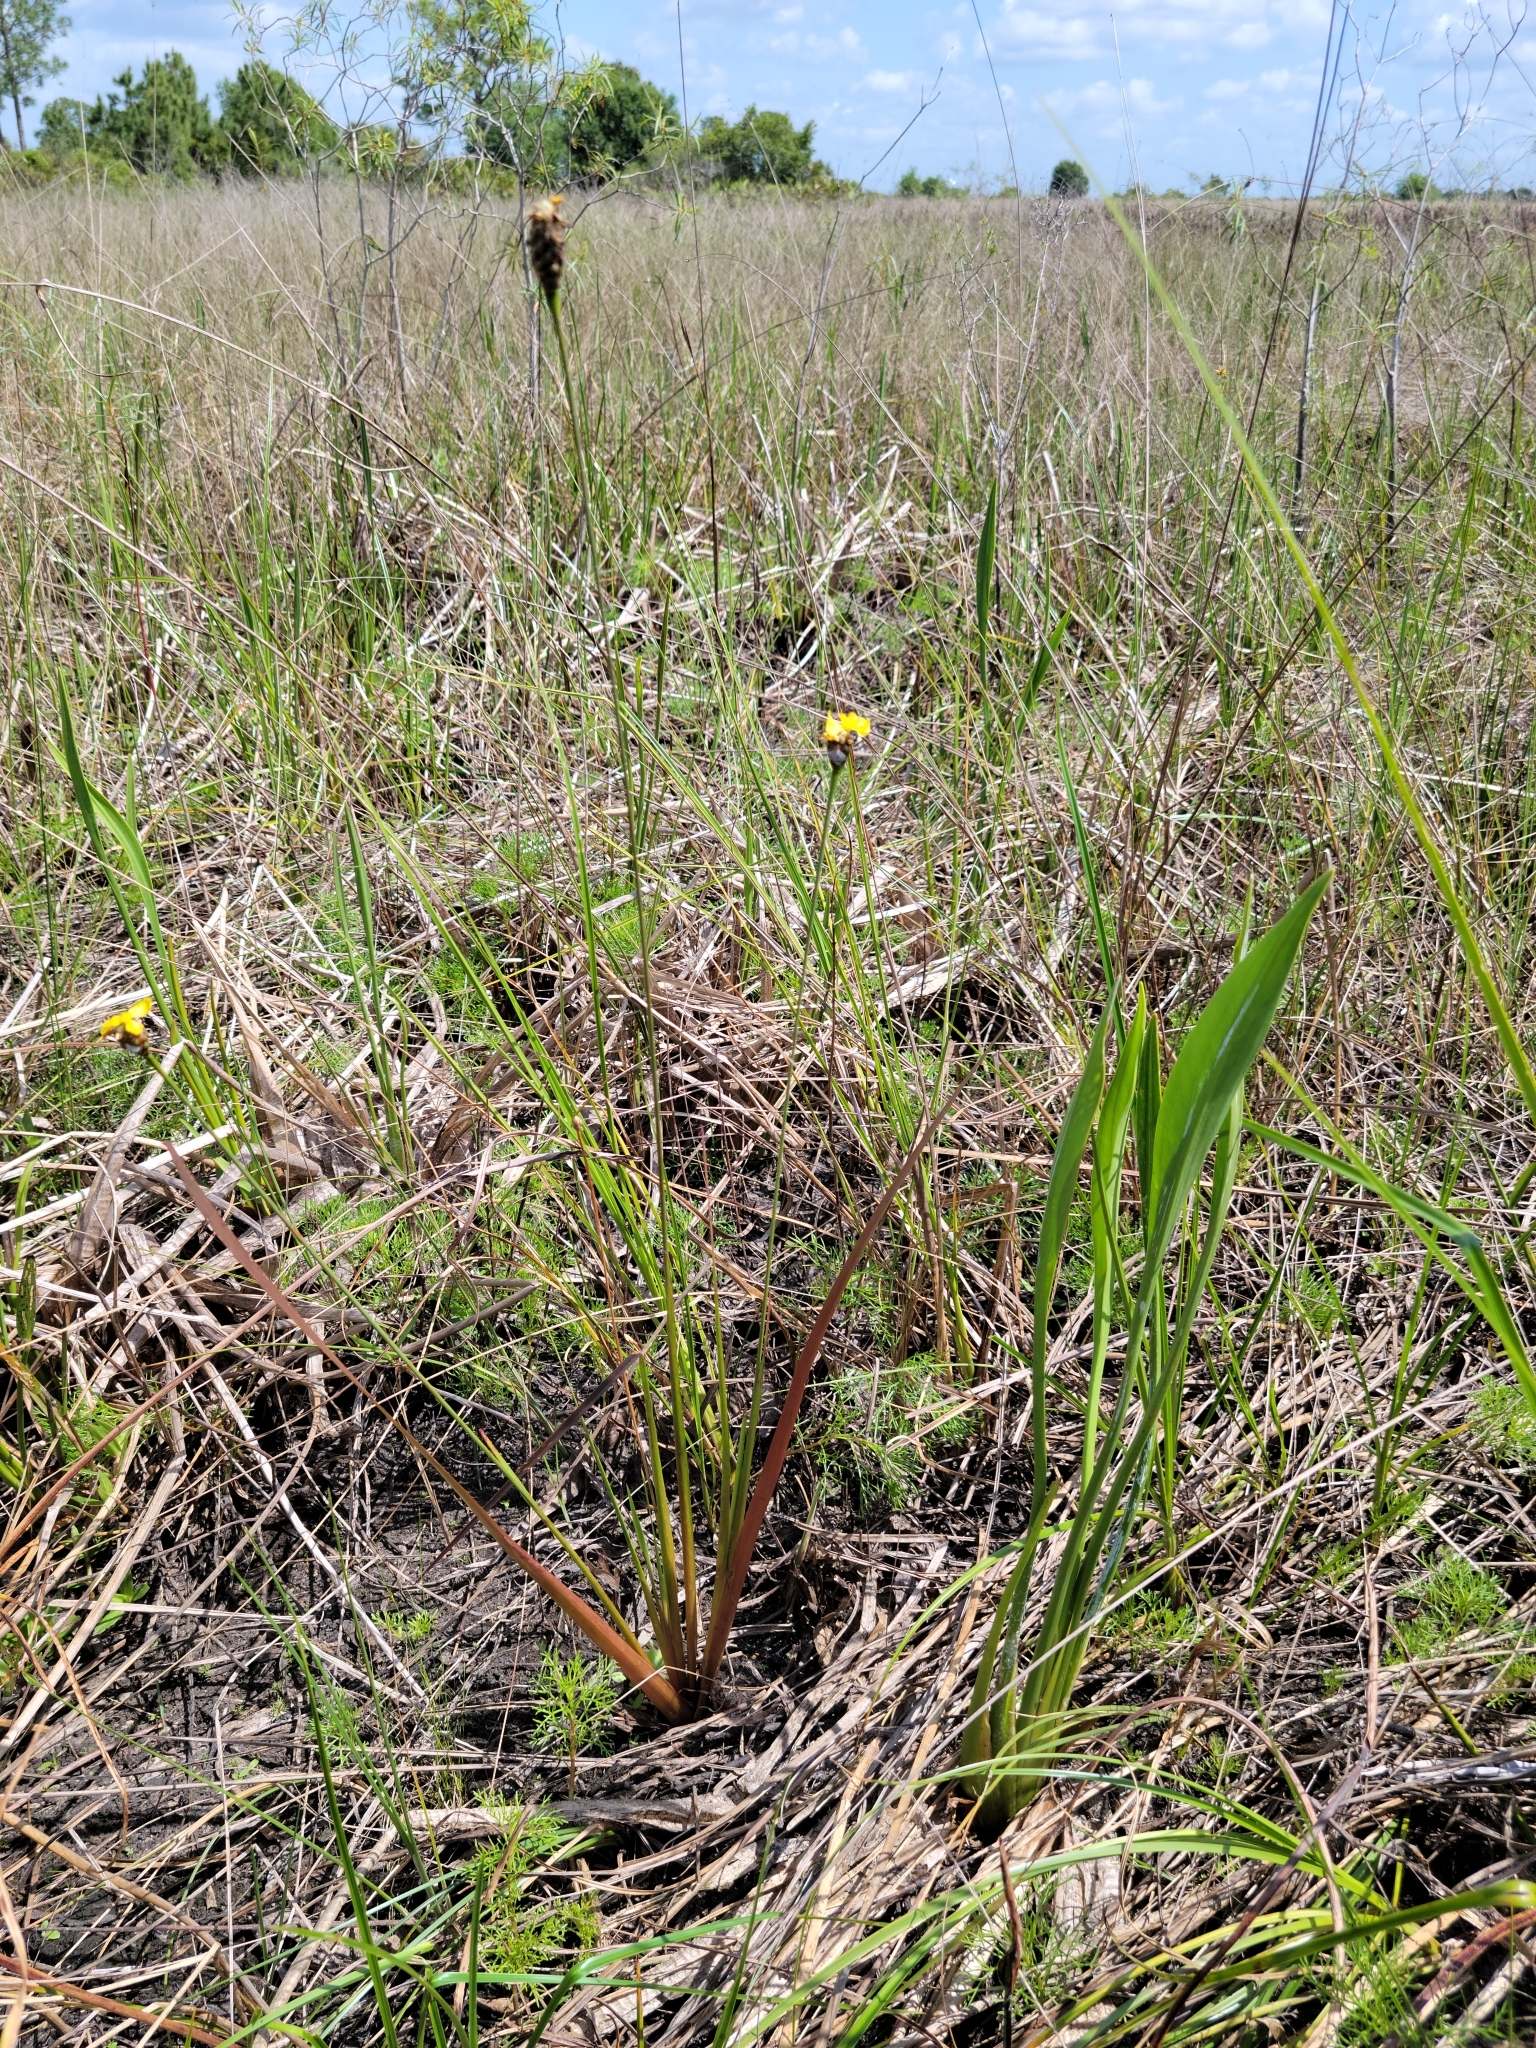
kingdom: Plantae
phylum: Tracheophyta
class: Liliopsida
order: Poales
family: Xyridaceae
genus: Xyris
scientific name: Xyris smalliana
